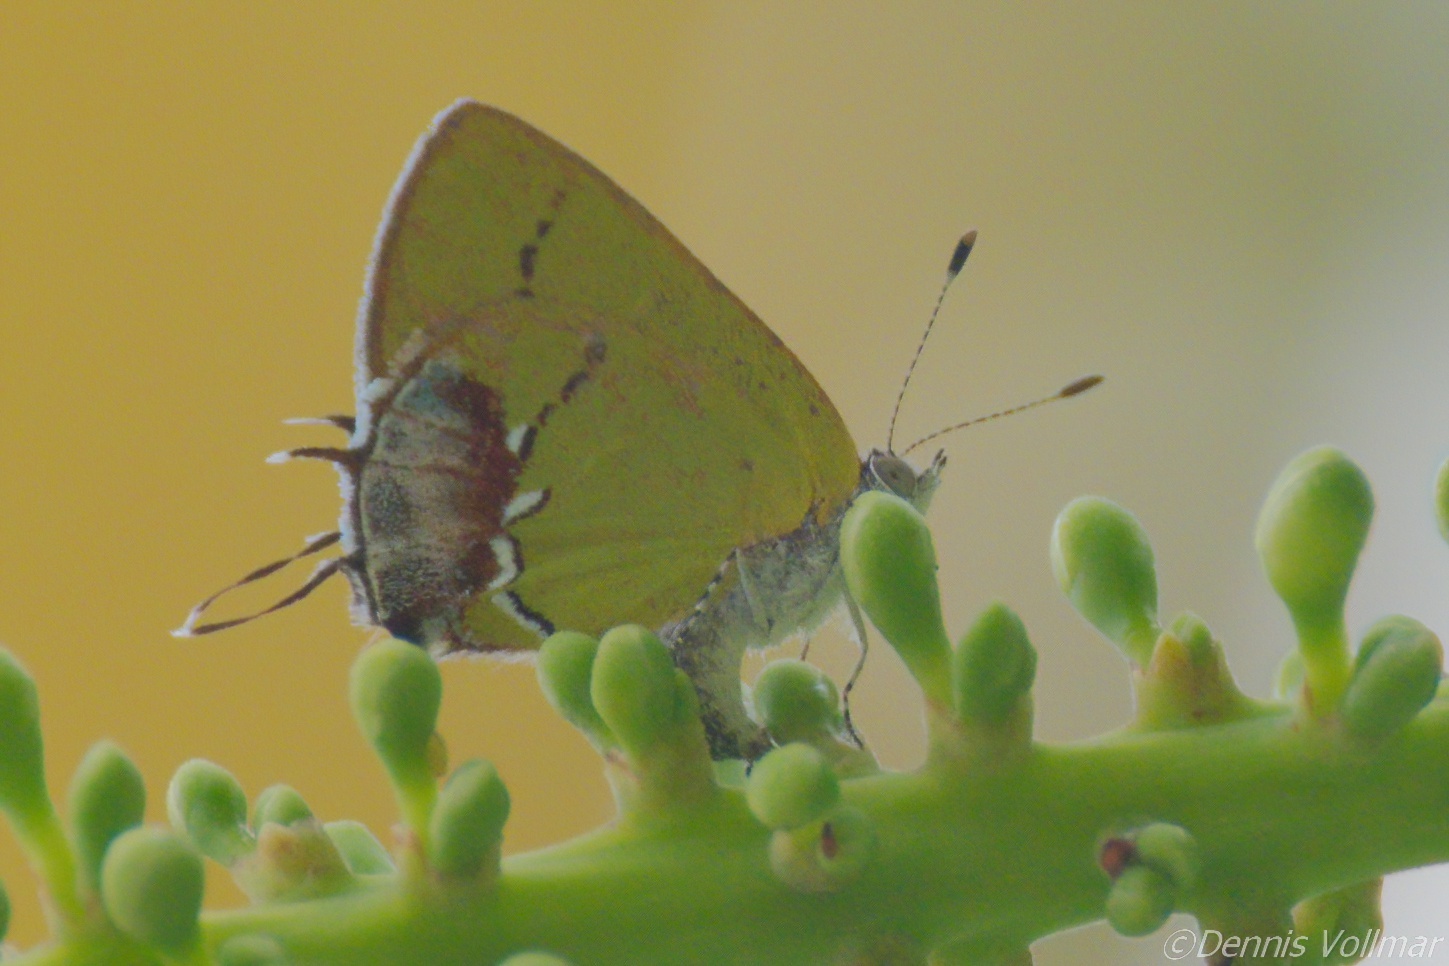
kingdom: Animalia
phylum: Arthropoda
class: Insecta
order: Lepidoptera
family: Lycaenidae
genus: Thecla
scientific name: Thecla maesites
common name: Verde azul hairstreak
